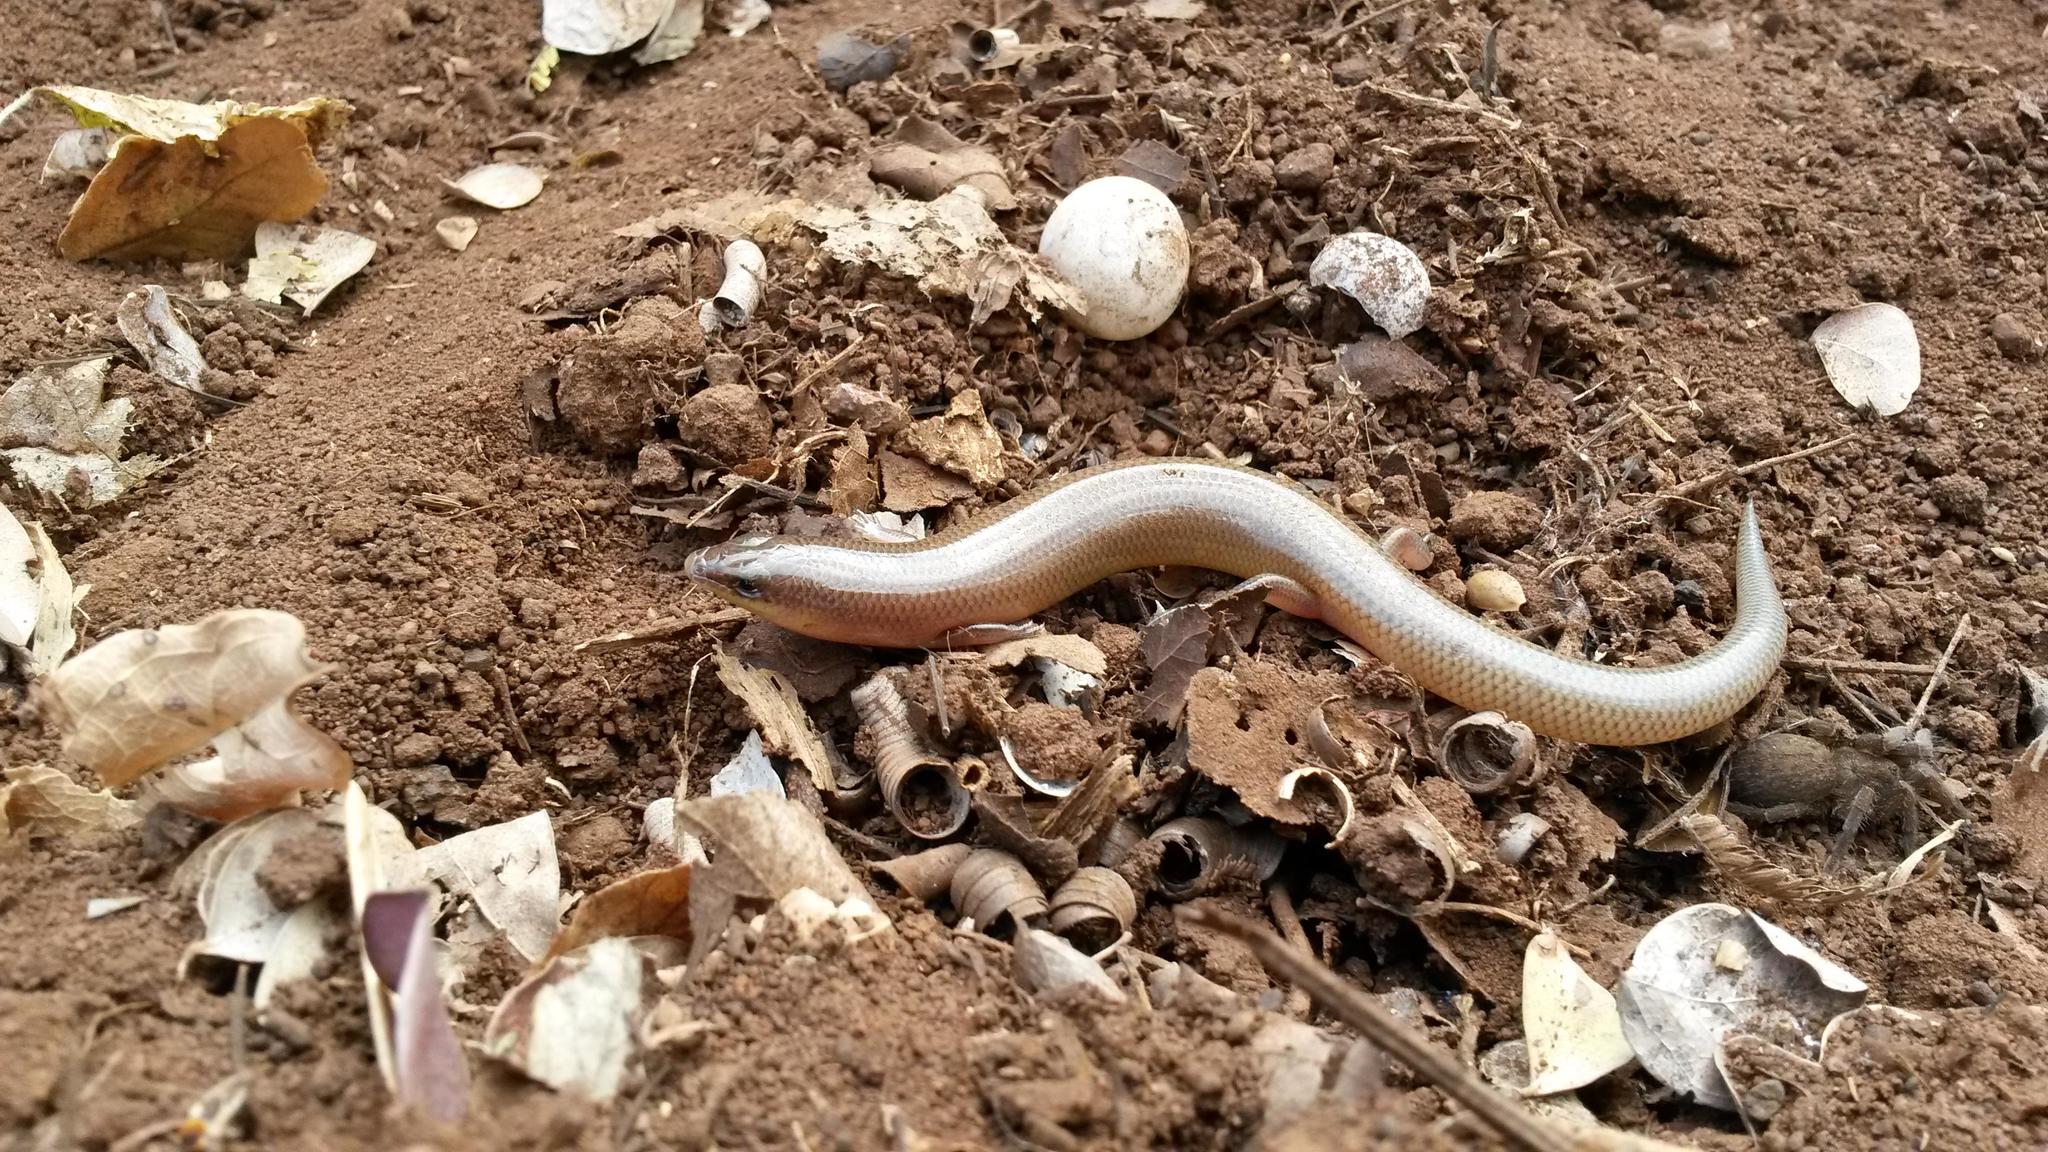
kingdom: Animalia
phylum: Chordata
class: Squamata
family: Scincidae
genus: Mochlus
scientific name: Mochlus sundevallii
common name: Peters' eyelid skink
